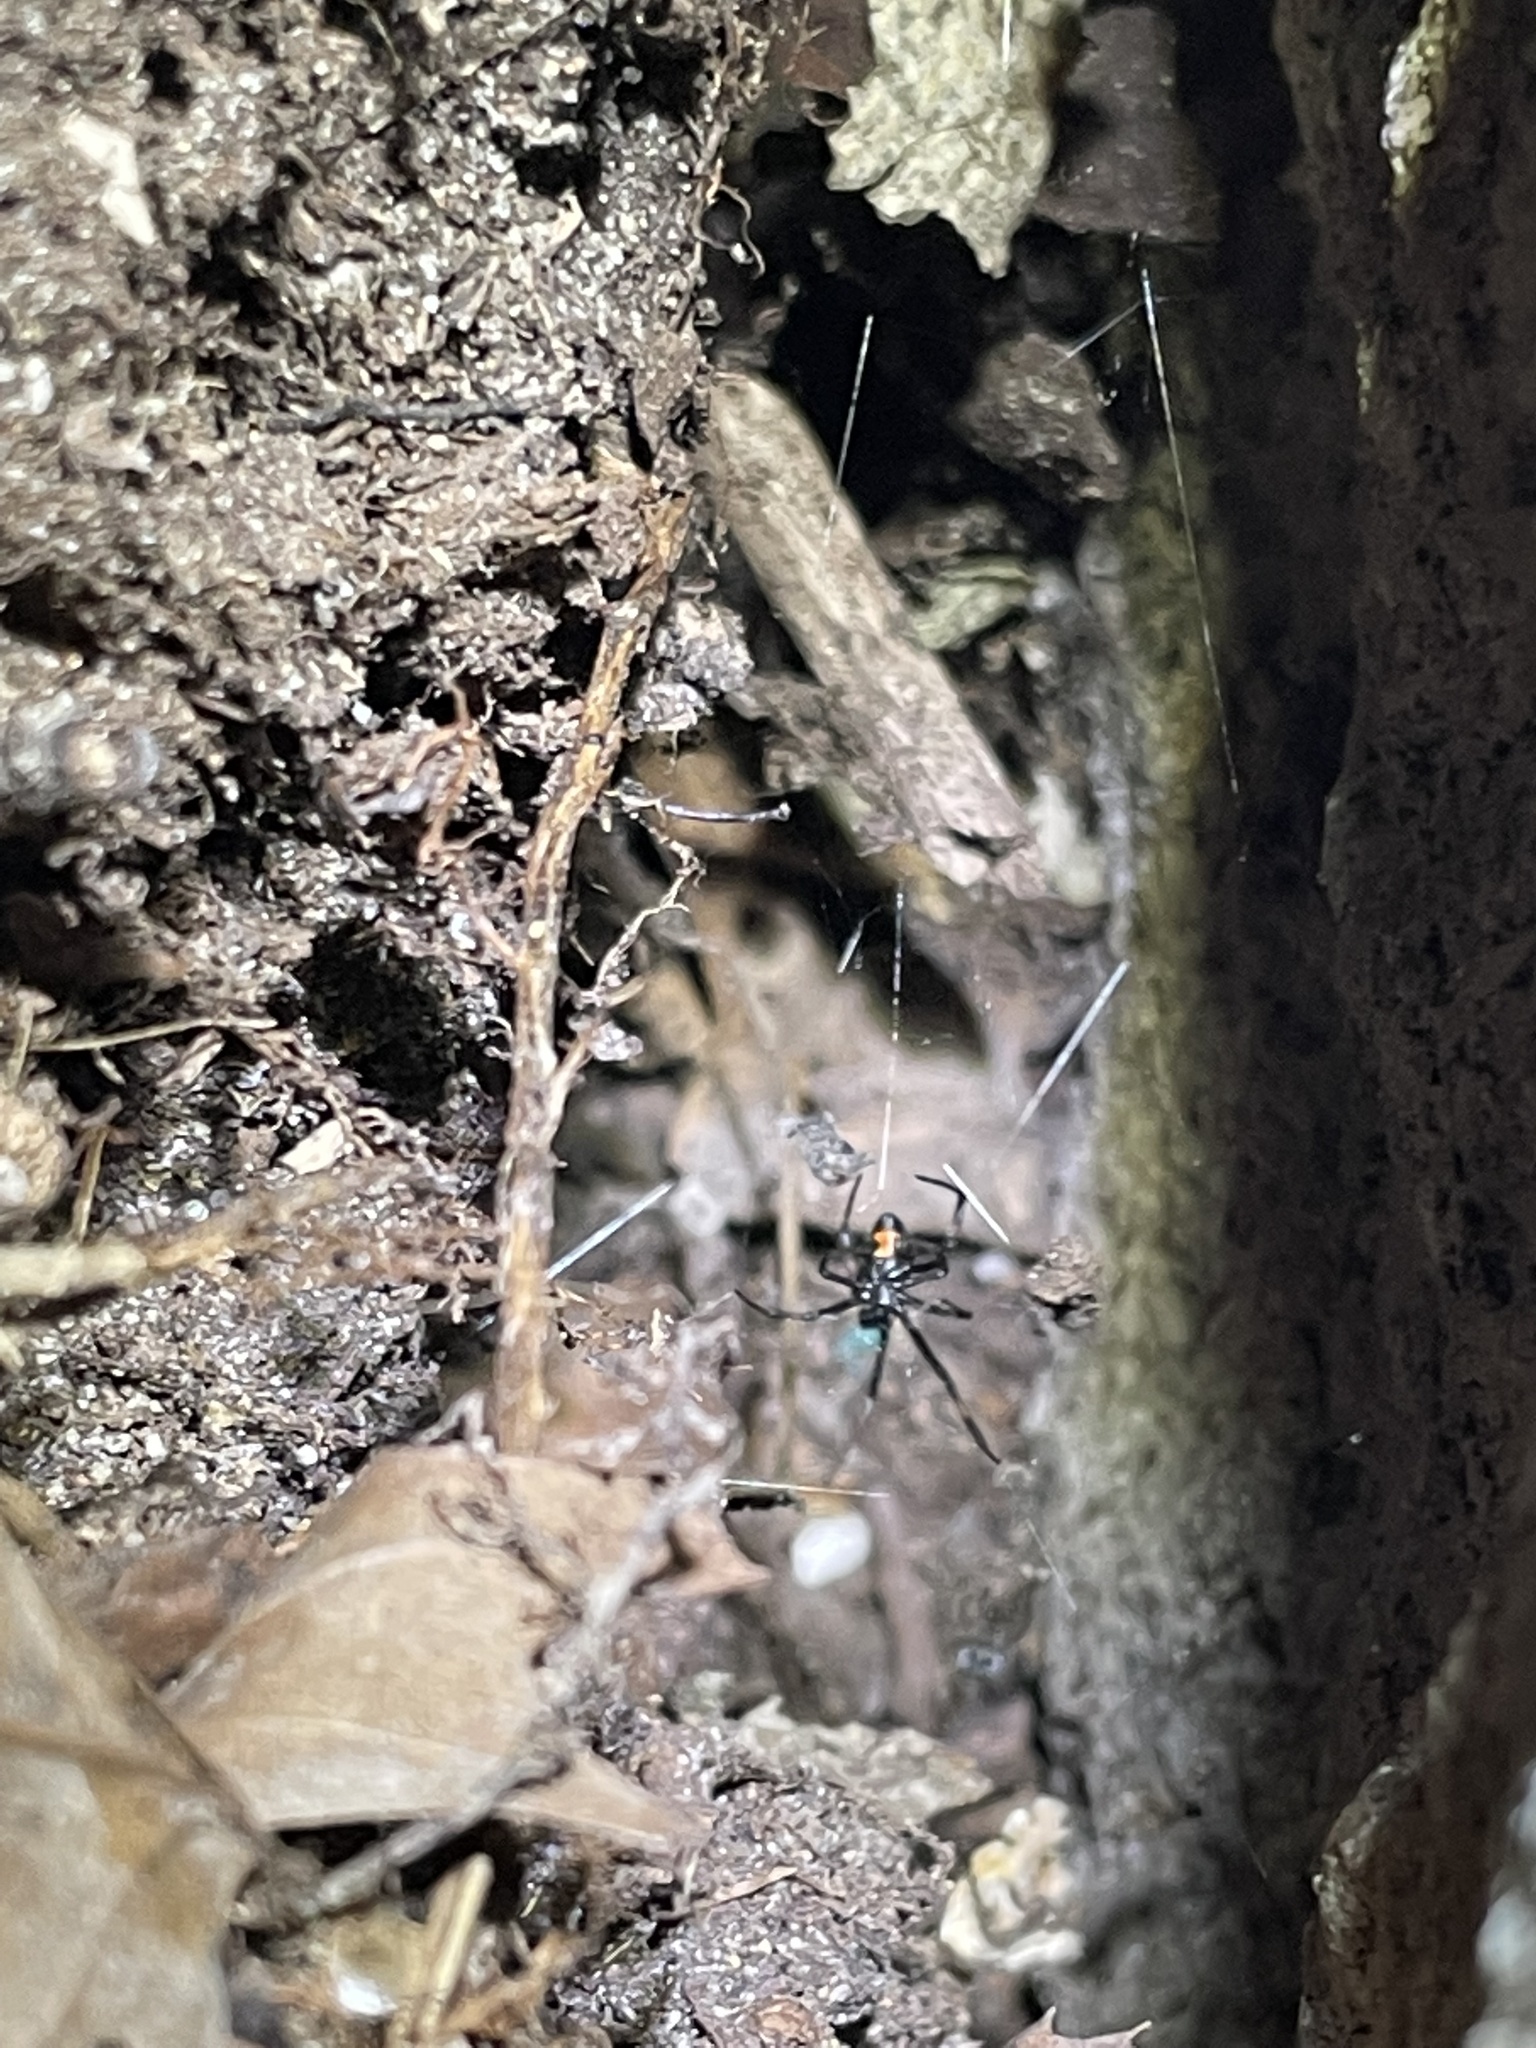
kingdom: Animalia
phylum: Arthropoda
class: Arachnida
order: Araneae
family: Theridiidae
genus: Latrodectus
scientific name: Latrodectus mactans
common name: Cobweb spiders
